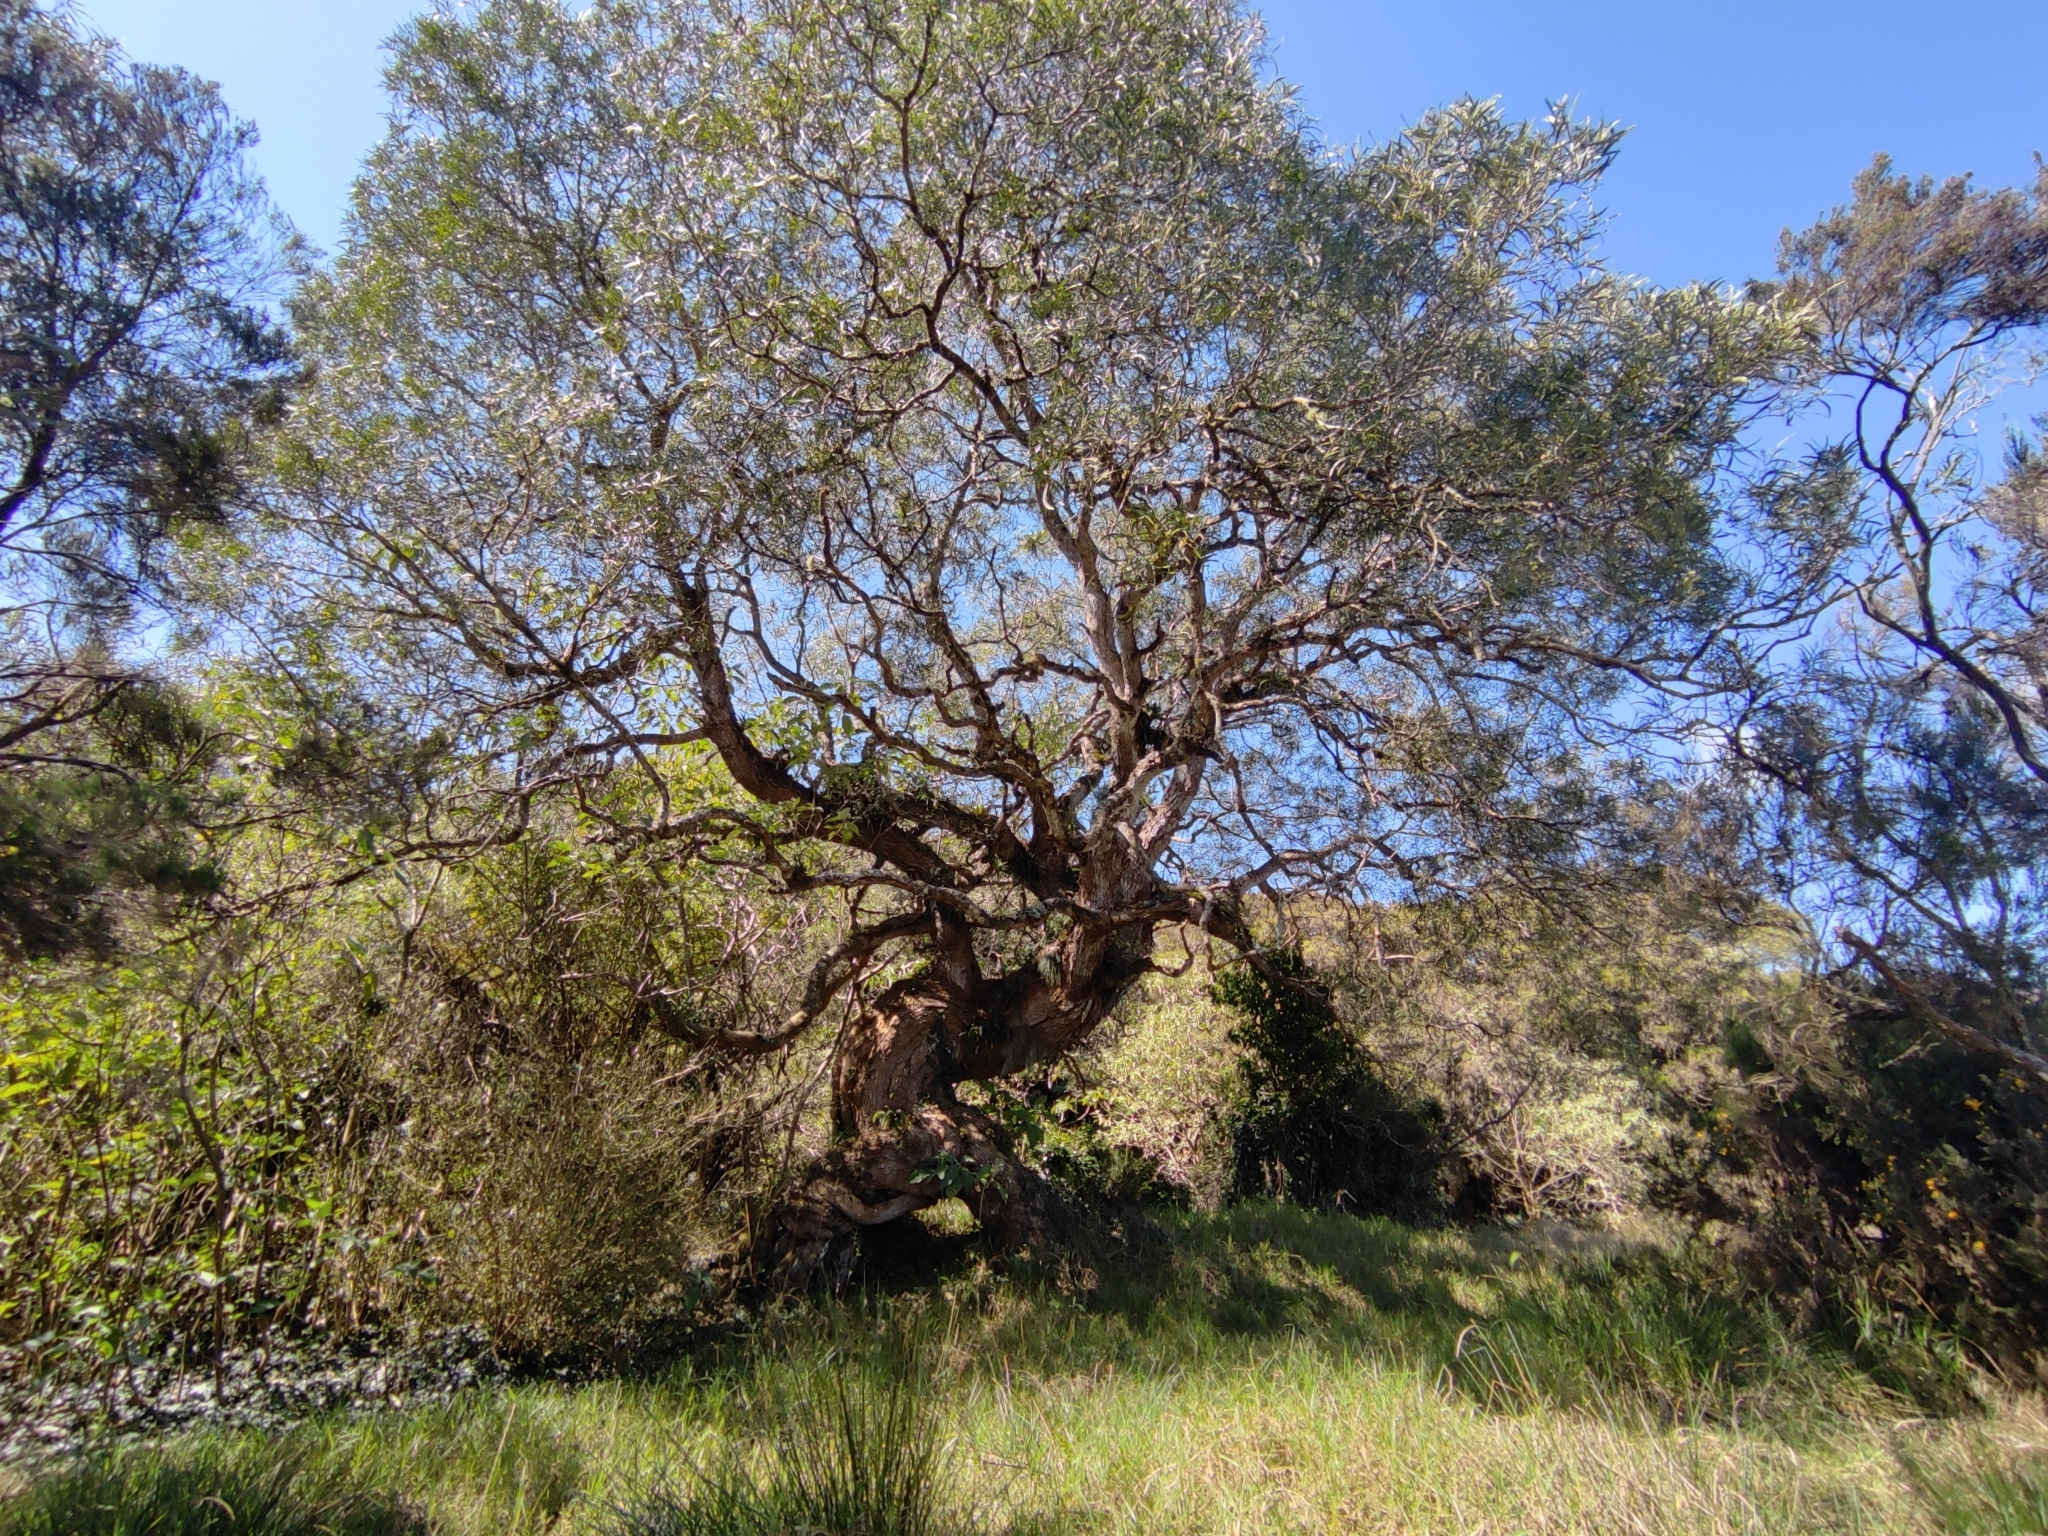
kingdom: Plantae
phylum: Tracheophyta
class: Magnoliopsida
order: Fabales
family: Fabaceae
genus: Acacia
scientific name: Acacia heterophylla
